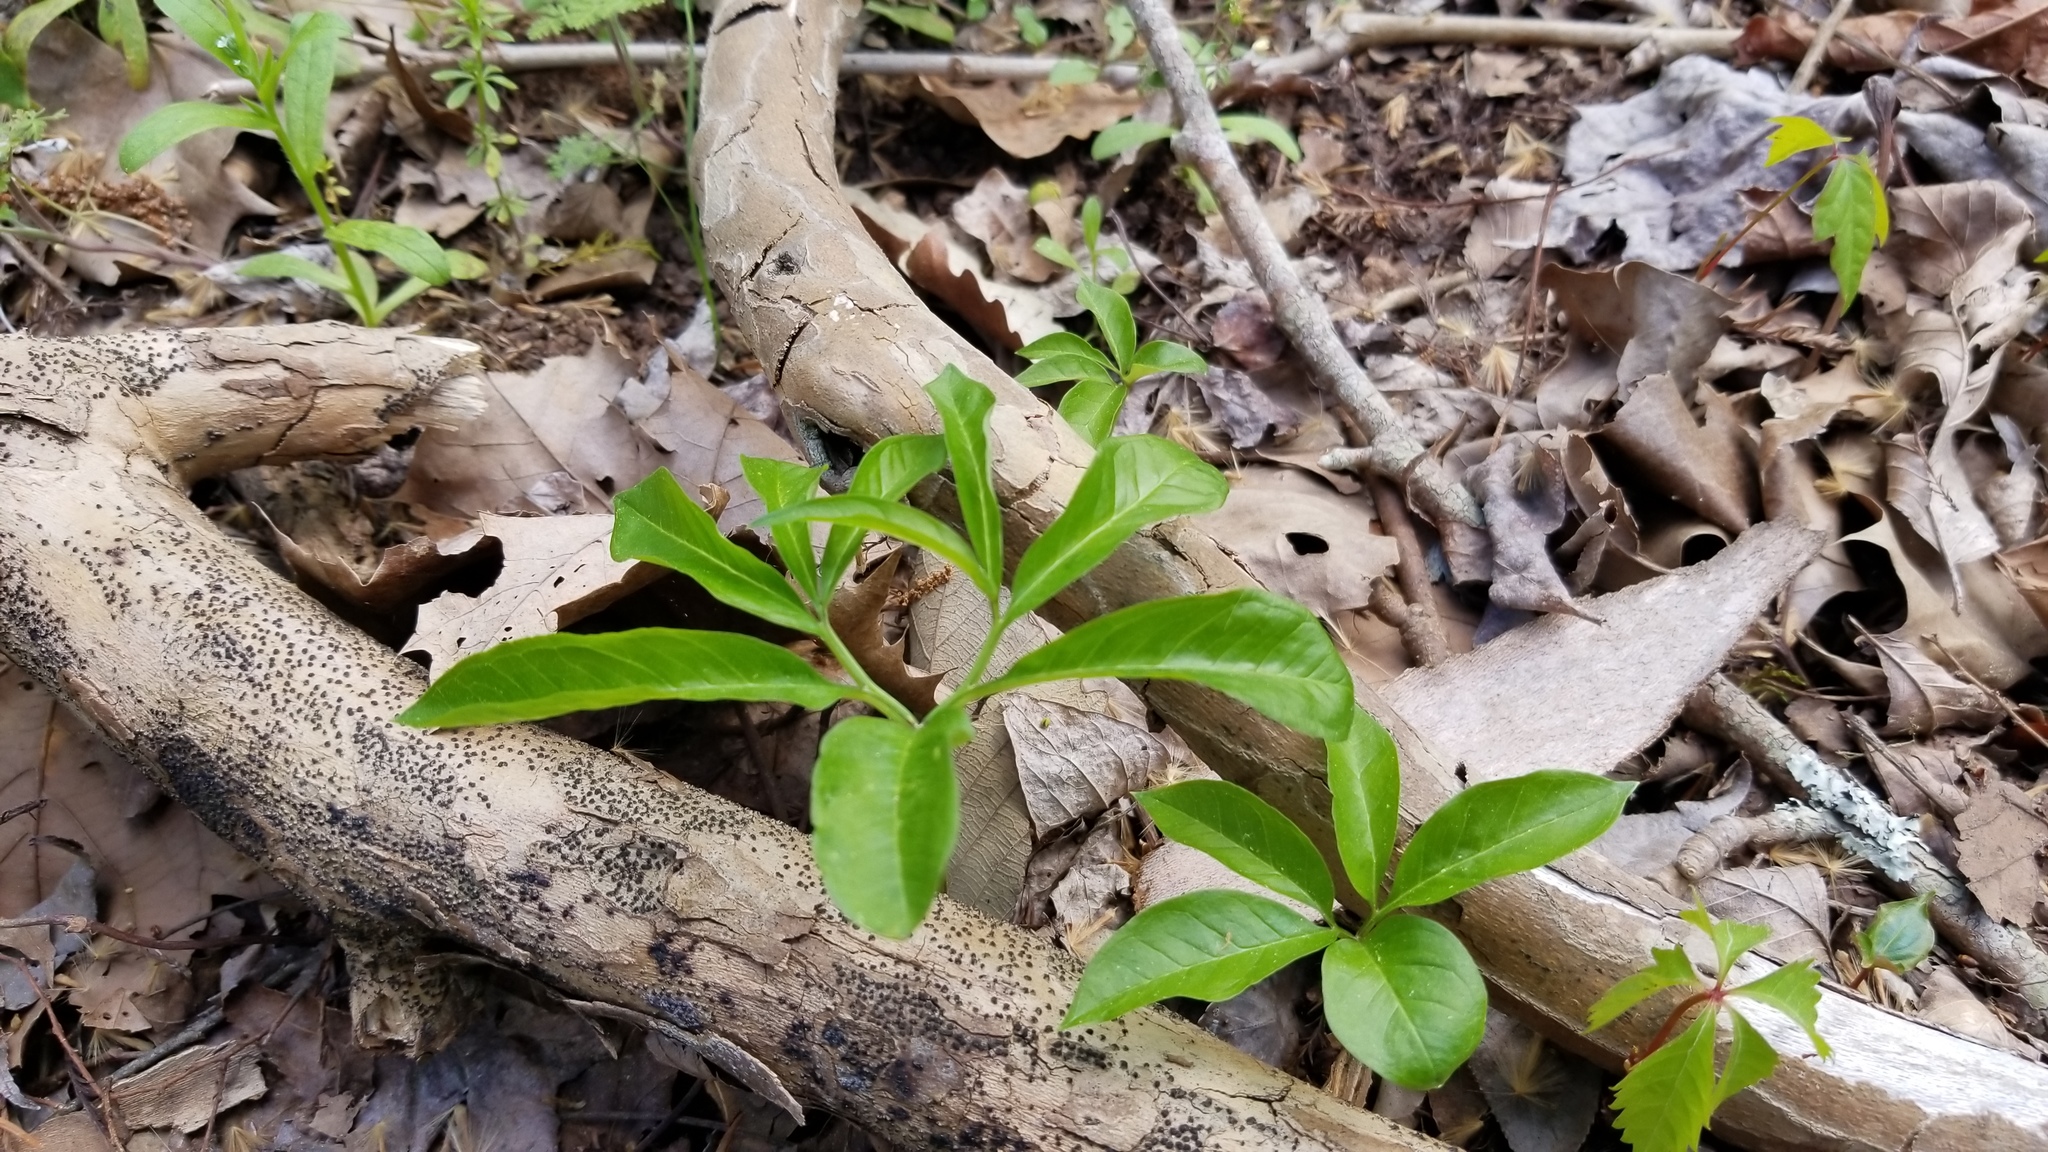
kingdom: Plantae
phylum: Tracheophyta
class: Liliopsida
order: Alismatales
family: Araceae
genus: Arisaema
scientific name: Arisaema dracontium
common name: Dragon-arum
